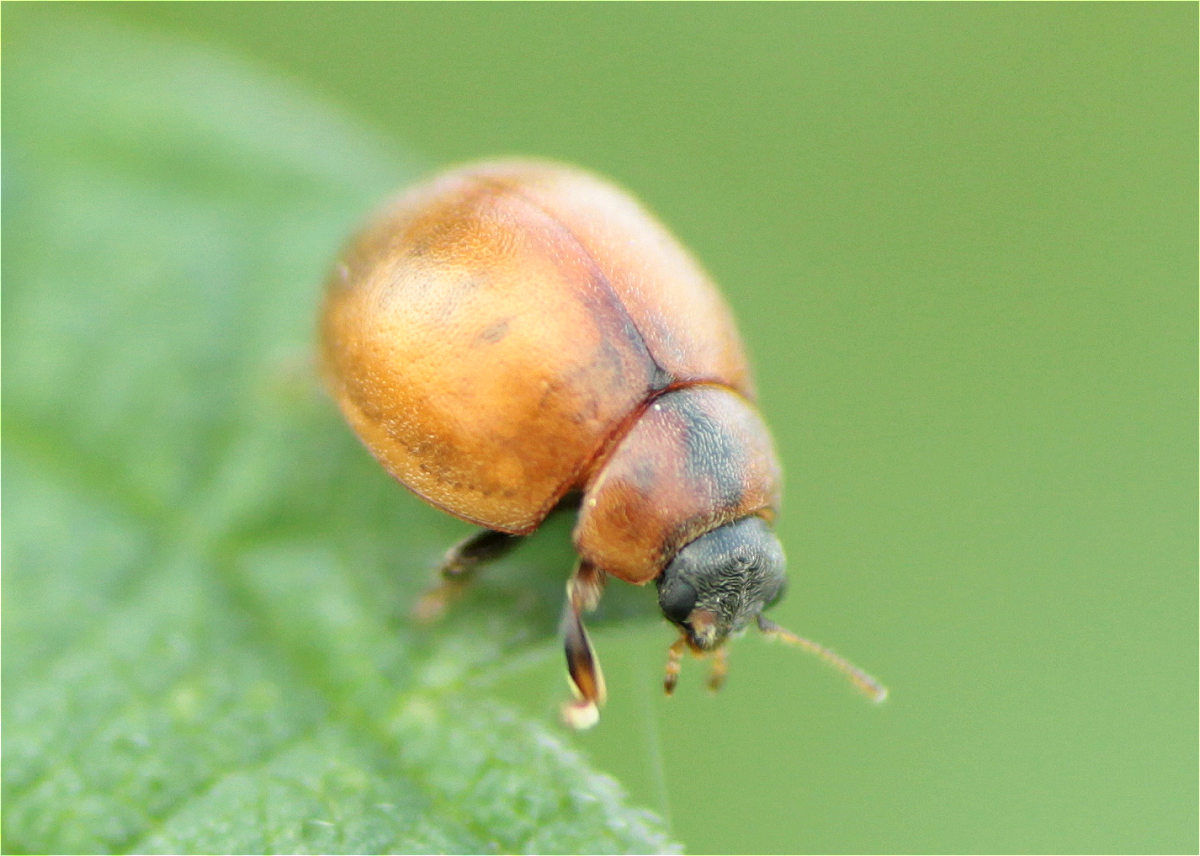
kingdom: Animalia
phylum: Arthropoda
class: Insecta
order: Coleoptera
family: Coccinellidae
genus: Cynegetis
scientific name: Cynegetis impunctata
